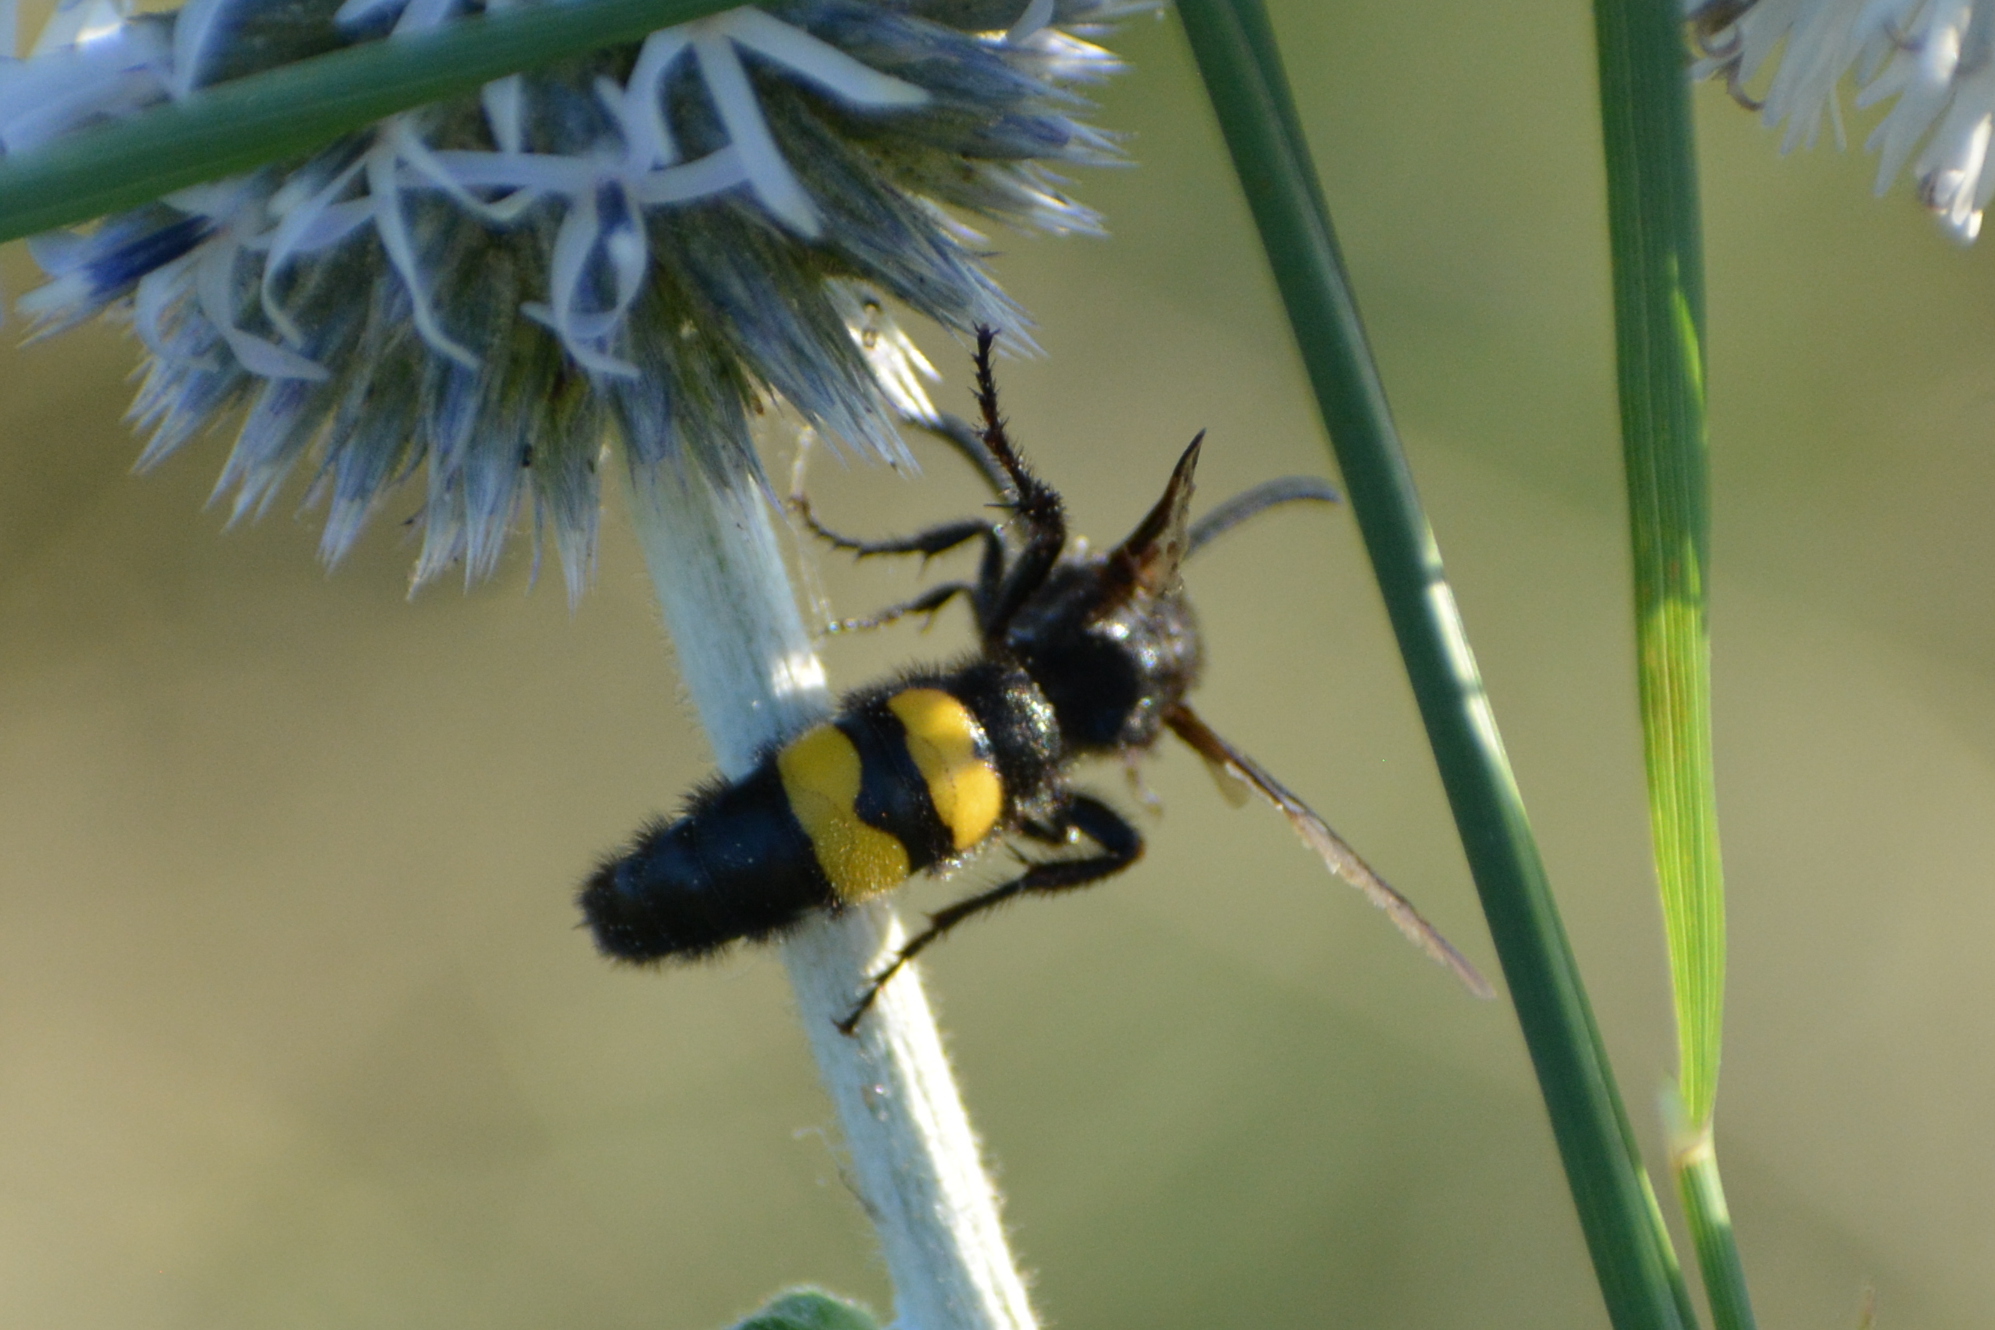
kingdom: Animalia
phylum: Arthropoda
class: Insecta
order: Hymenoptera
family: Scoliidae
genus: Scolia
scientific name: Scolia hirta
